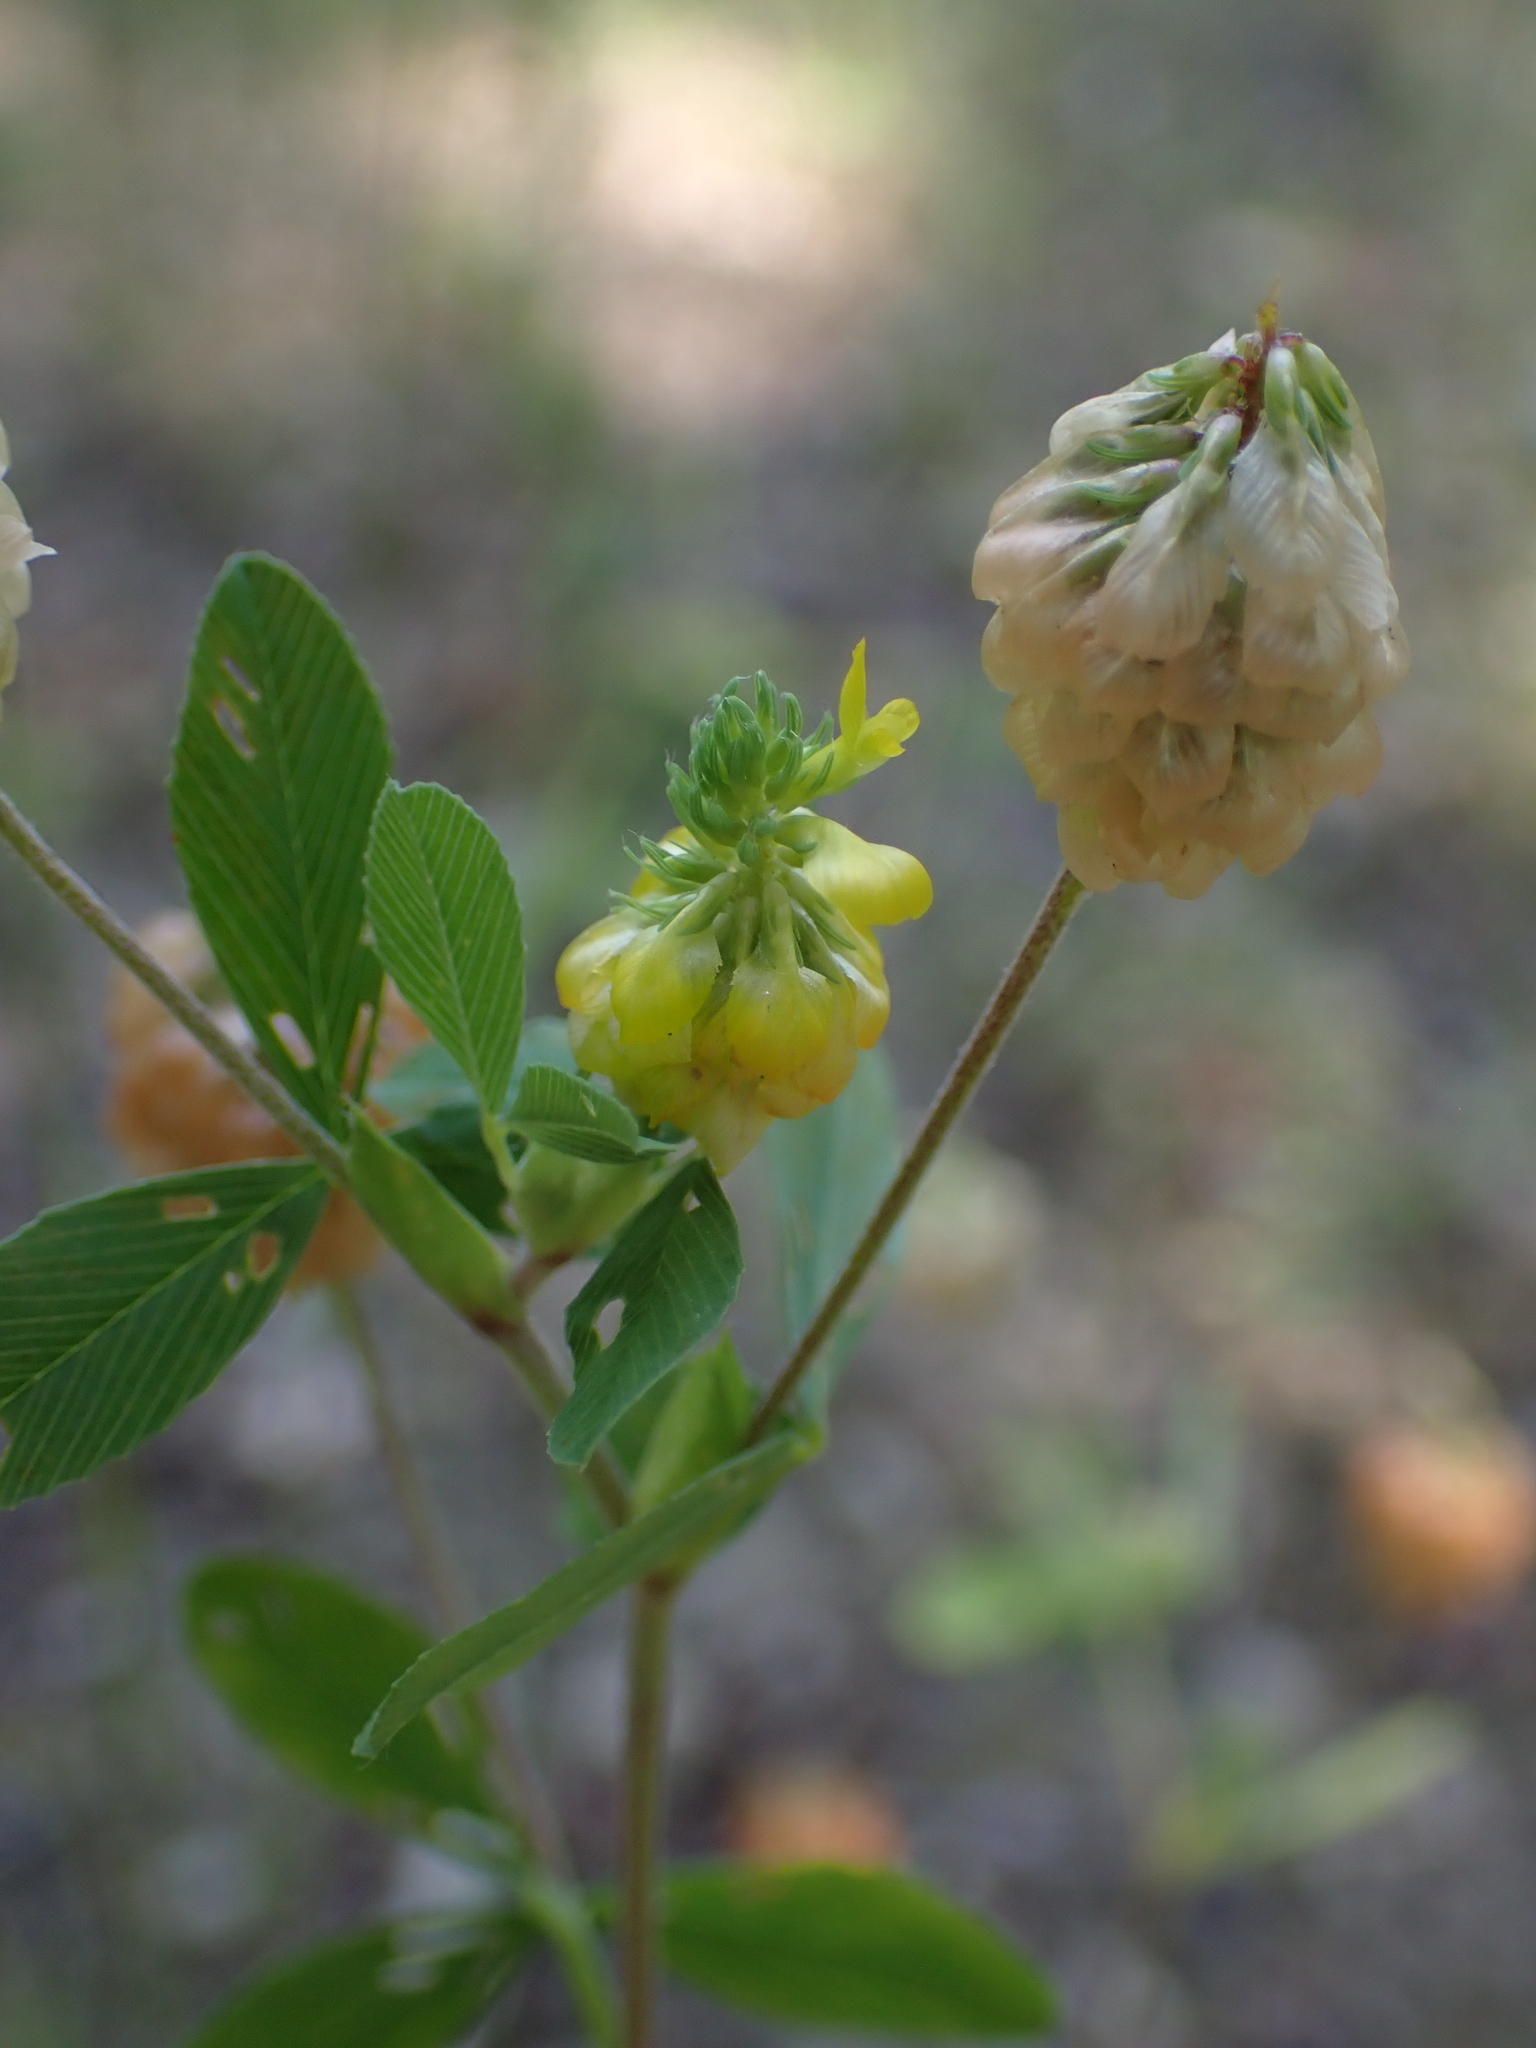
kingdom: Plantae
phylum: Tracheophyta
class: Magnoliopsida
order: Fabales
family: Fabaceae
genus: Trifolium
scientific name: Trifolium aureum
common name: Golden clover
